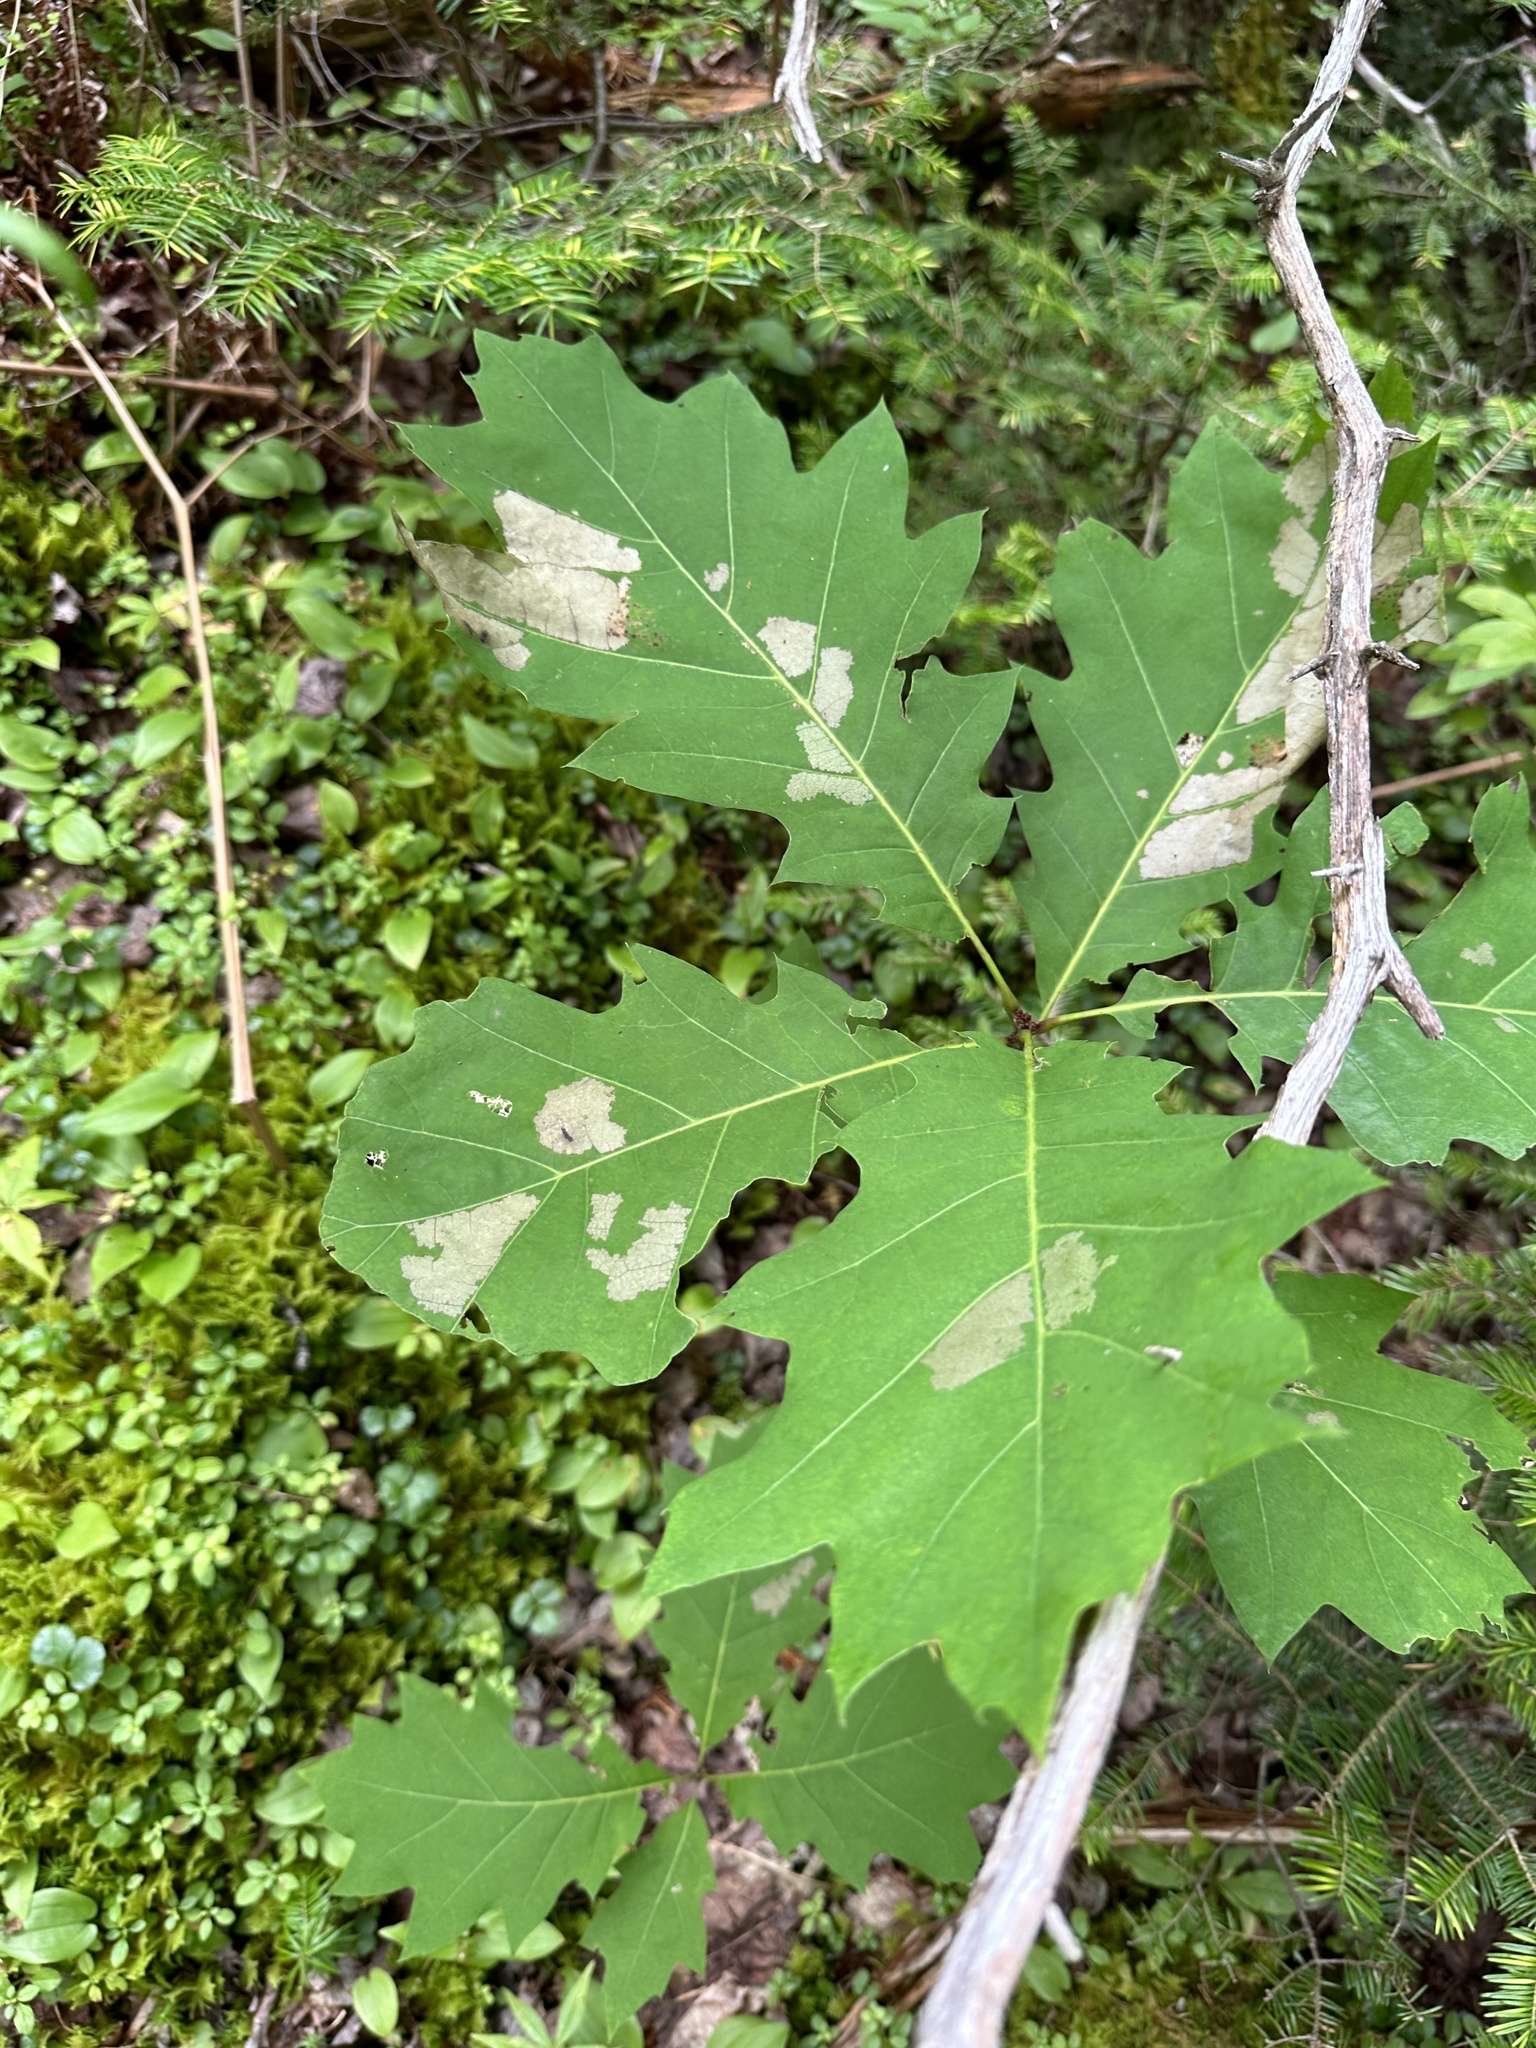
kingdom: Plantae
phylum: Tracheophyta
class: Magnoliopsida
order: Fagales
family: Fagaceae
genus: Quercus
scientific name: Quercus rubra
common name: Red oak
